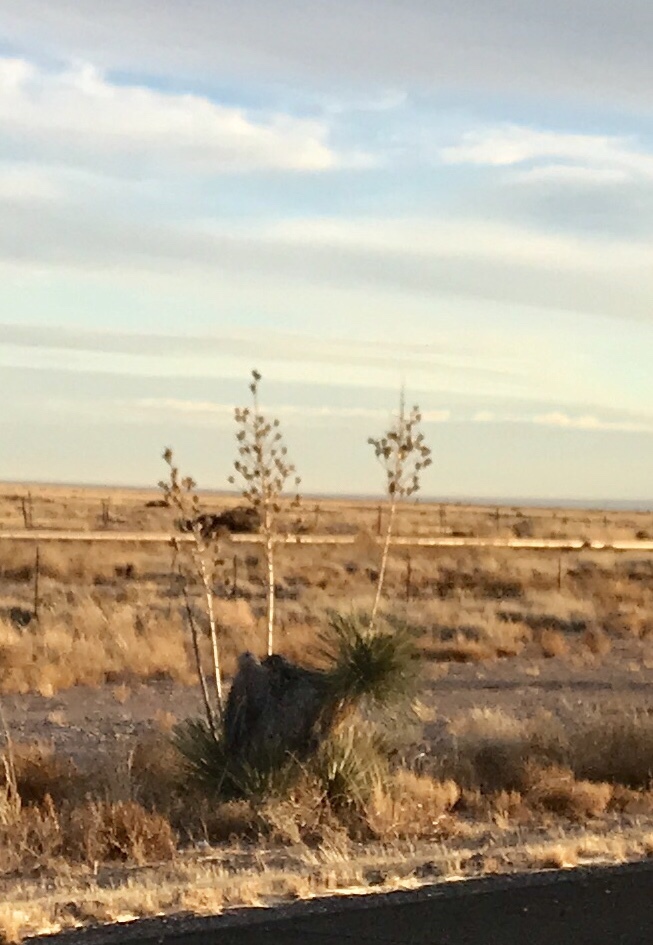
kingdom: Plantae
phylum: Tracheophyta
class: Liliopsida
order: Asparagales
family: Asparagaceae
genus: Yucca
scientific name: Yucca elata
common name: Palmella
